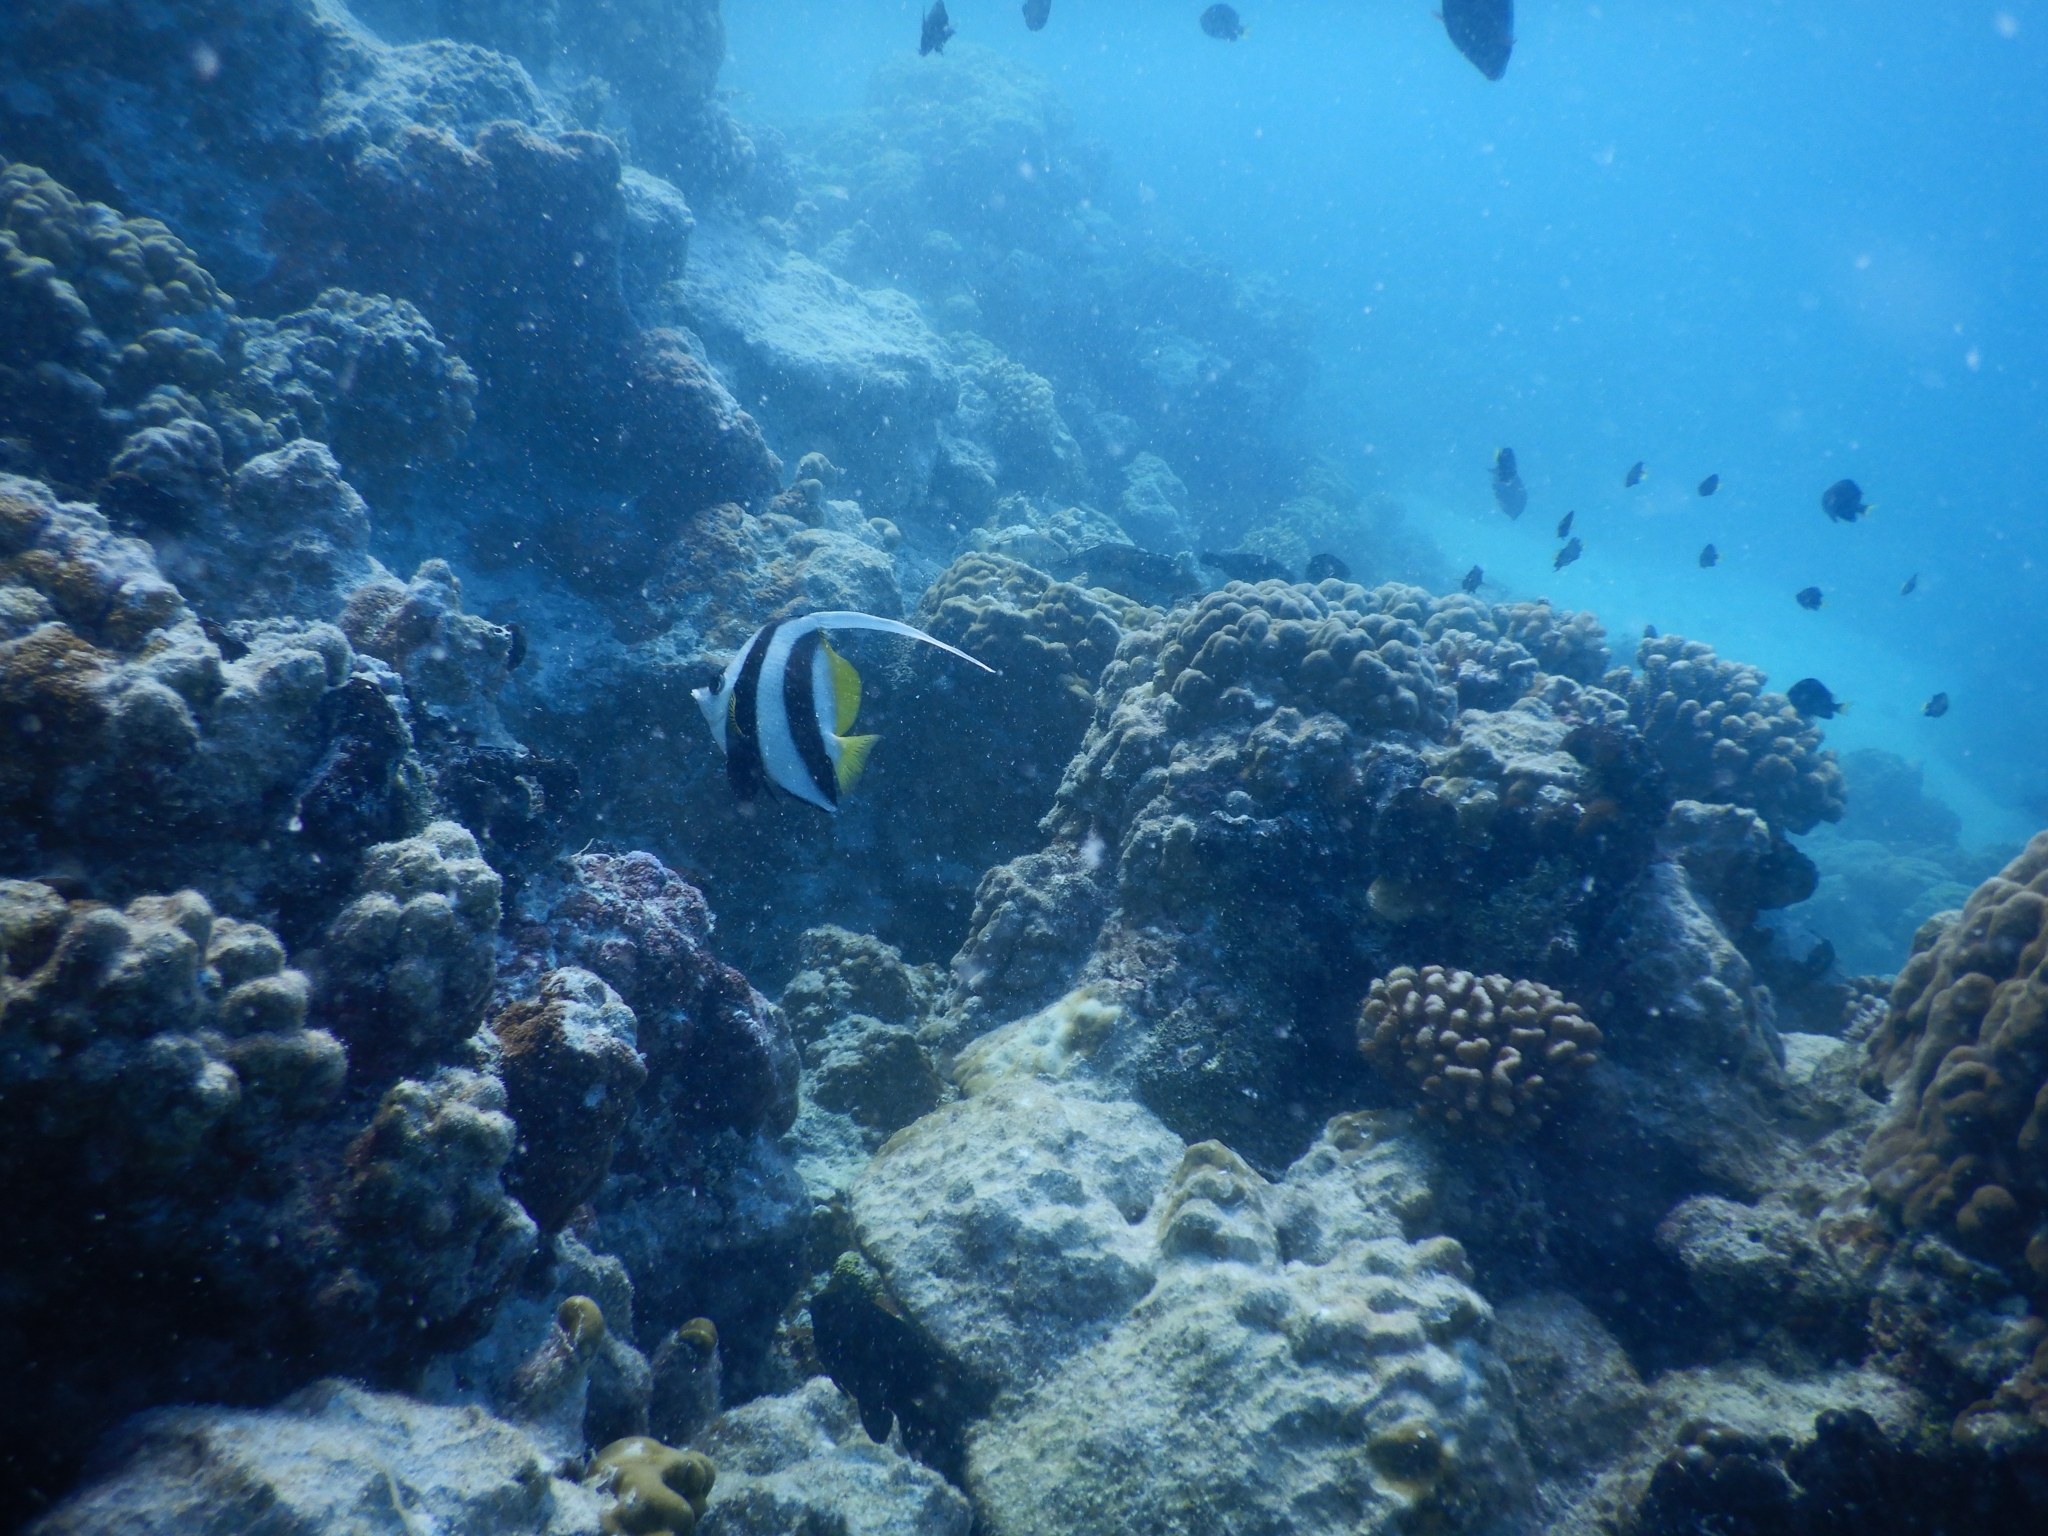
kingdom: Animalia
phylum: Chordata
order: Perciformes
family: Chaetodontidae
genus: Heniochus
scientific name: Heniochus acuminatus
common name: Pennant coralfish
